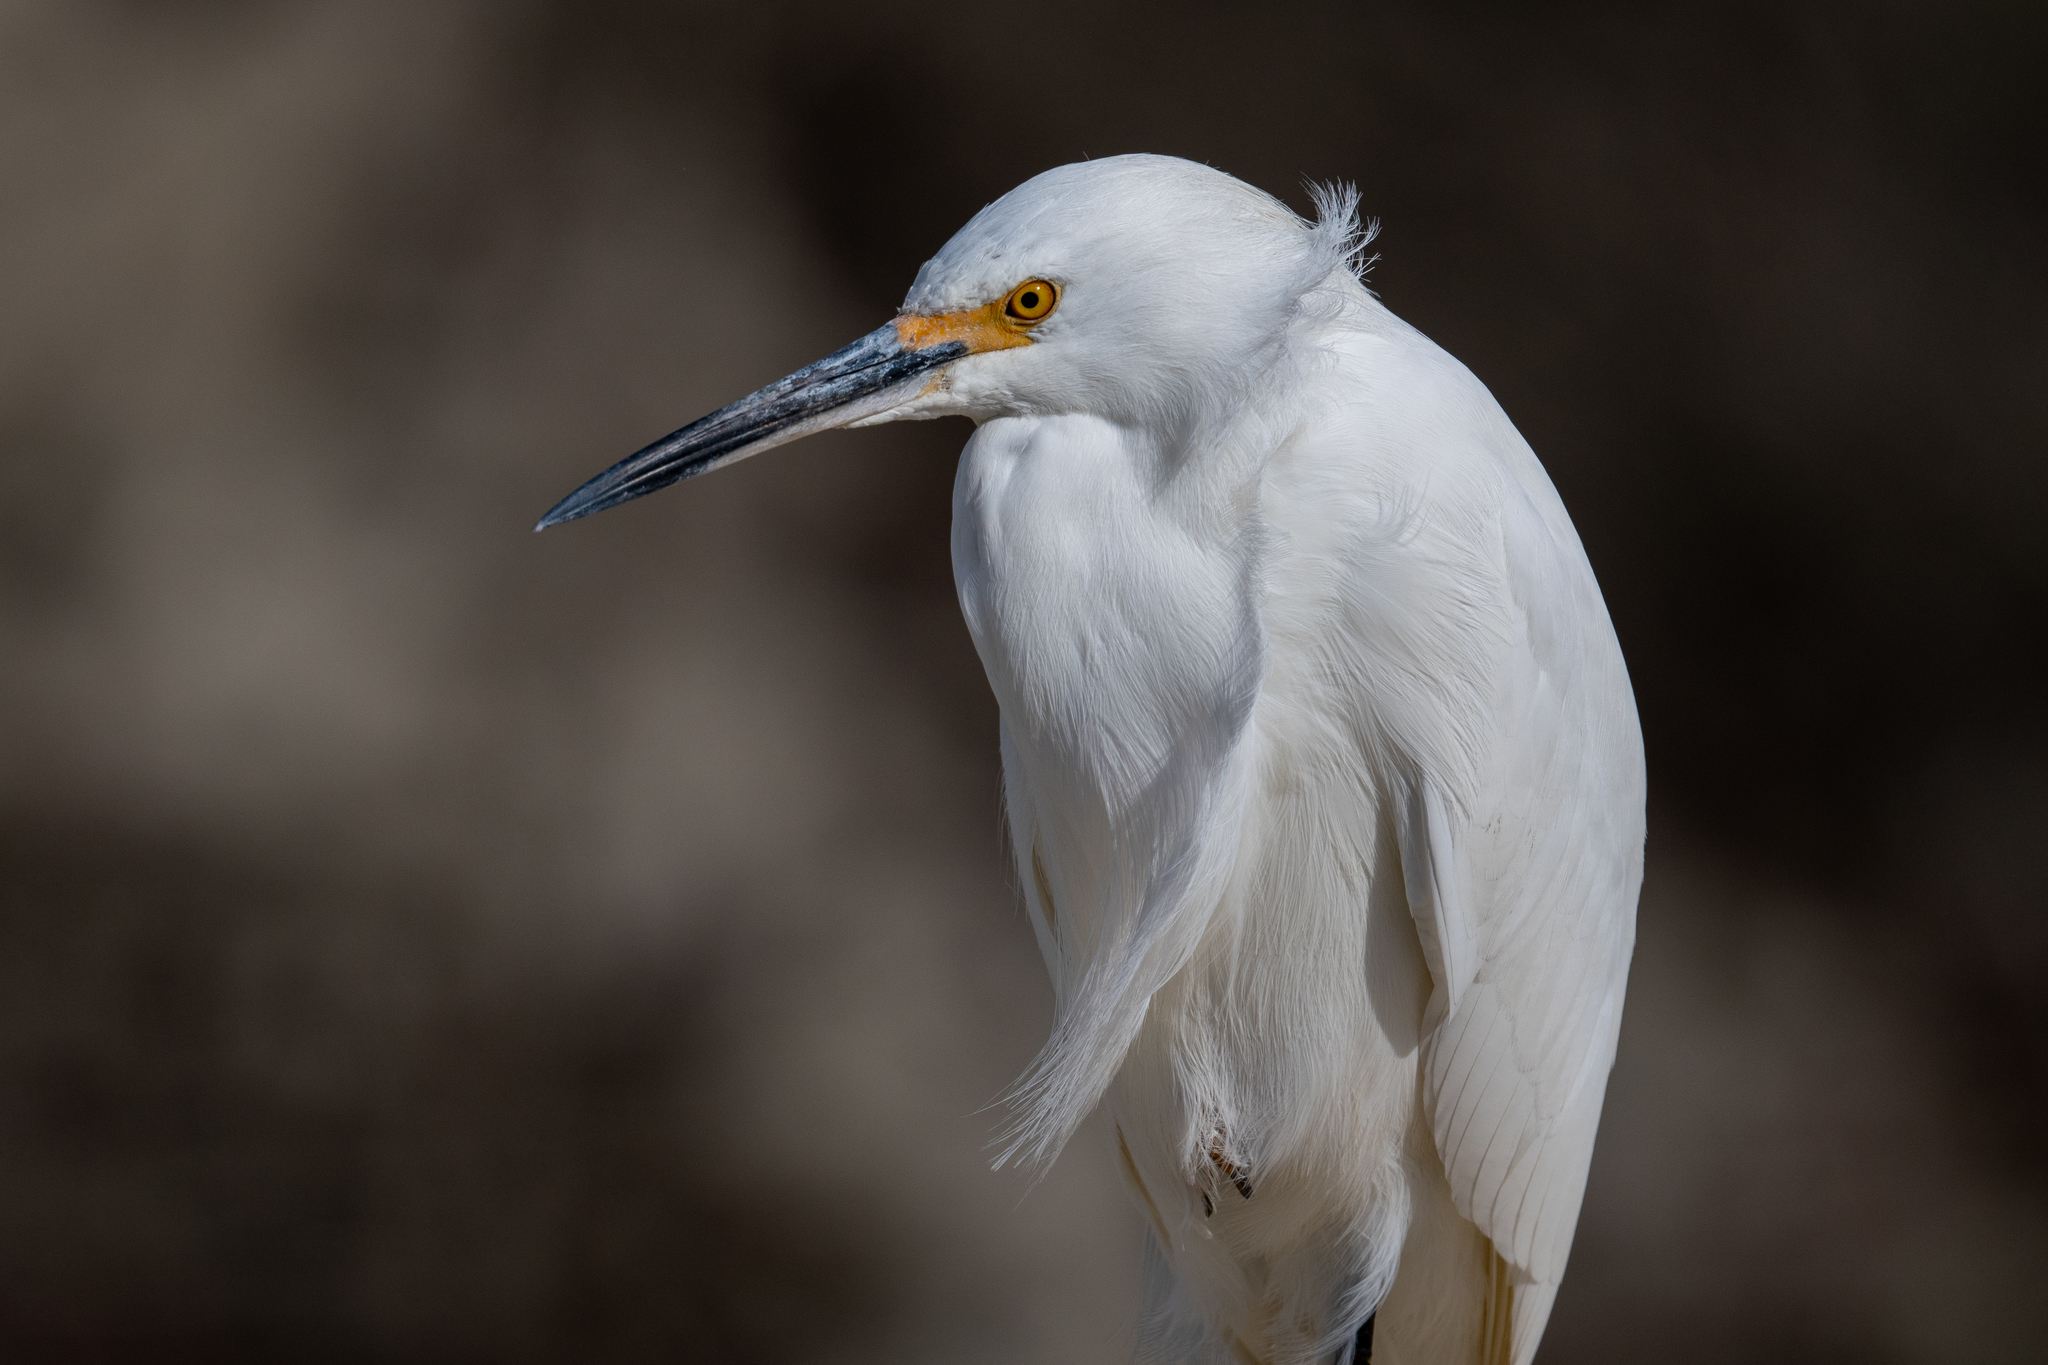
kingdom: Animalia
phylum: Chordata
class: Aves
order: Pelecaniformes
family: Ardeidae
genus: Egretta
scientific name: Egretta thula
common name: Snowy egret
